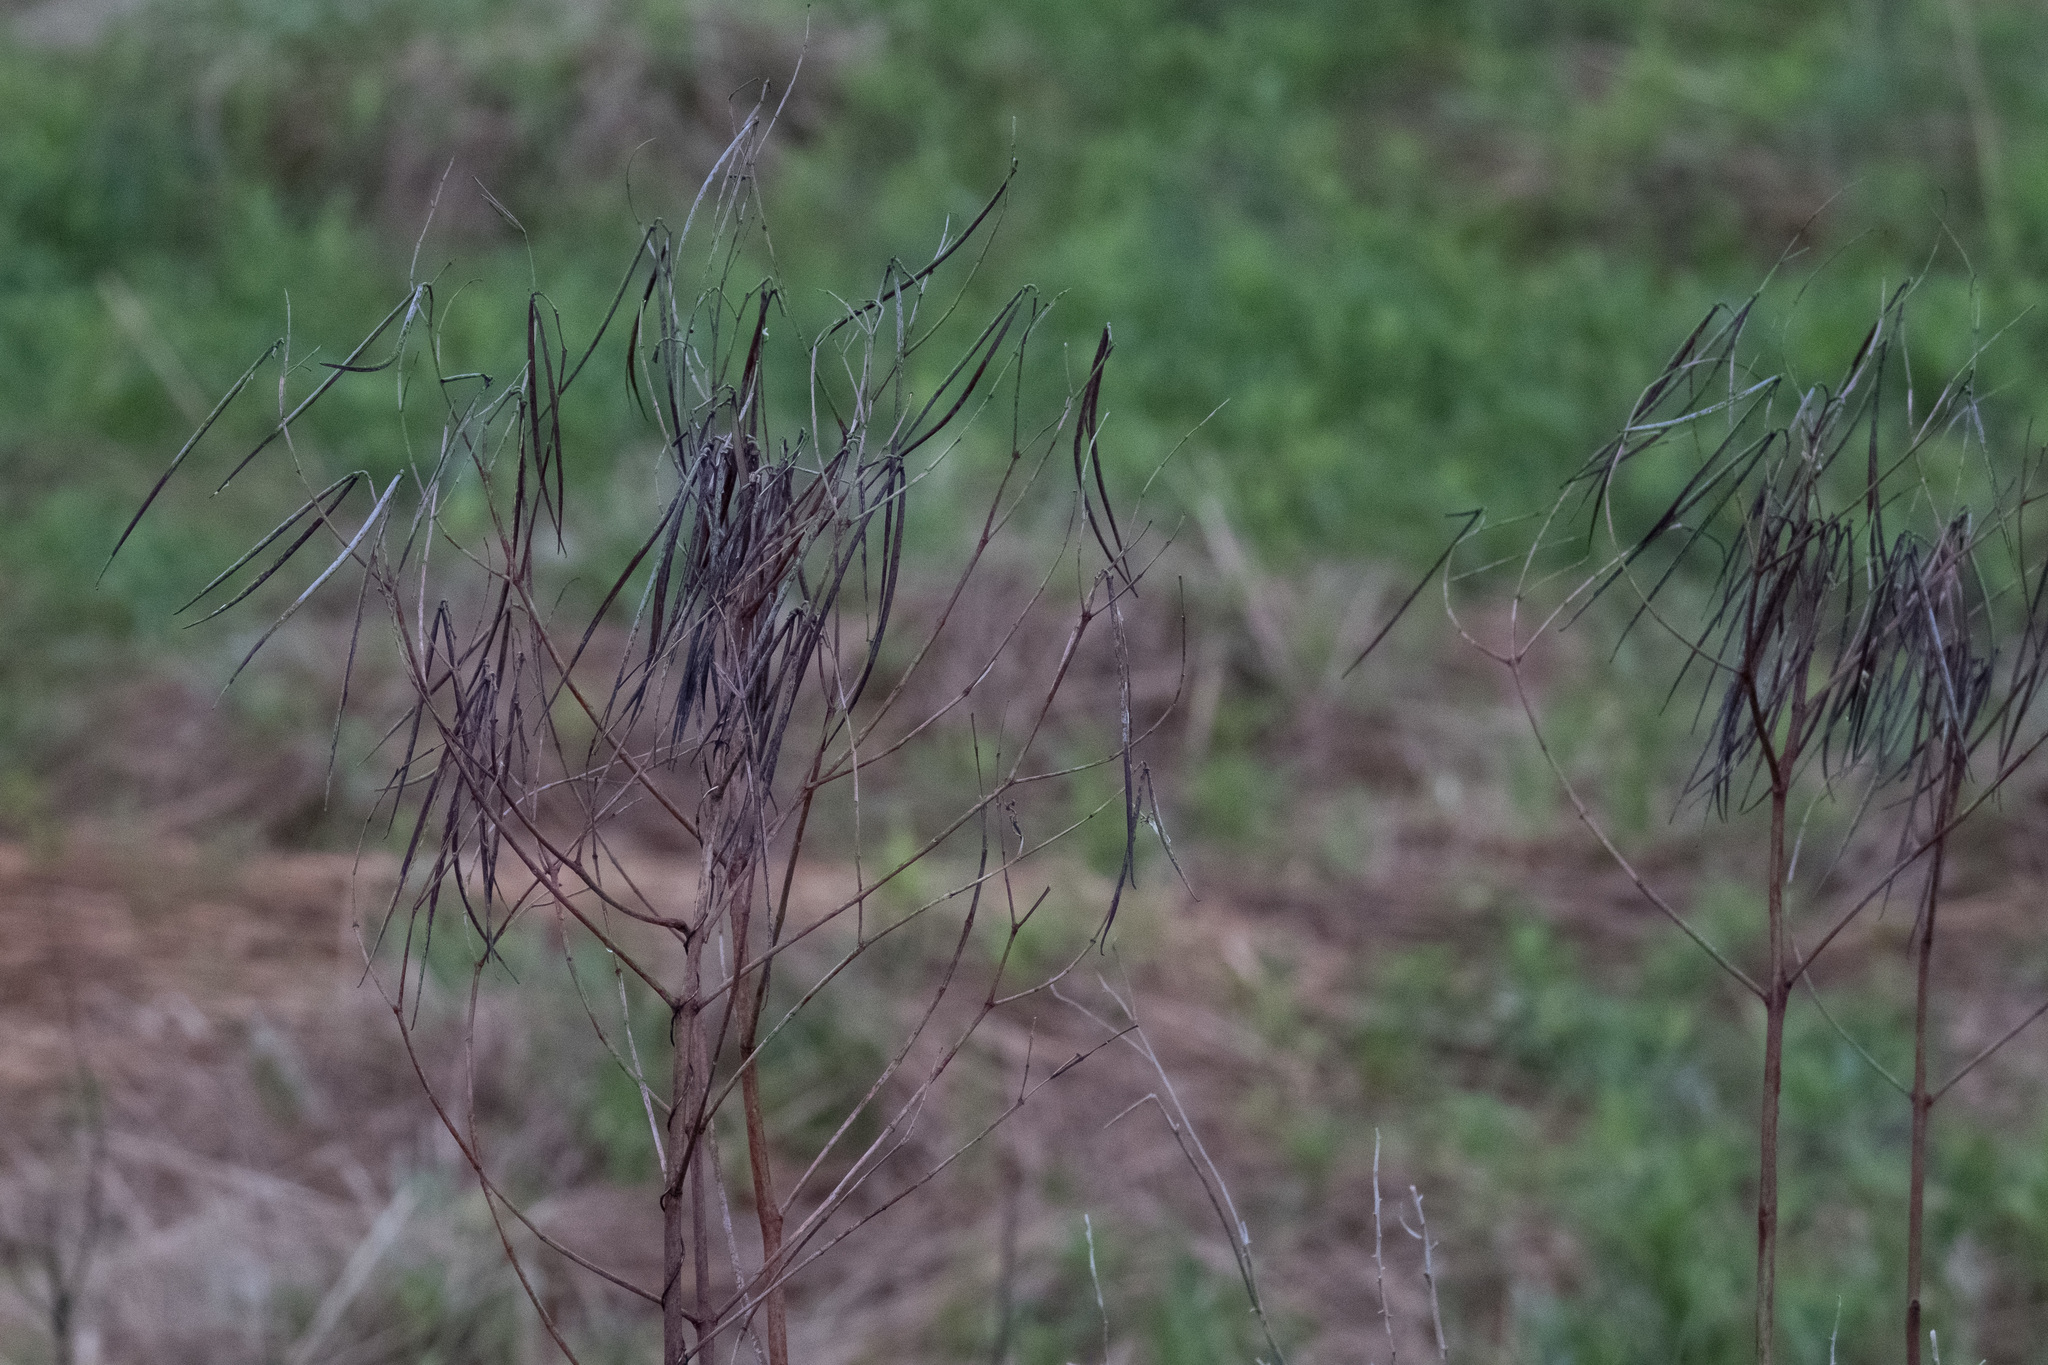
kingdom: Plantae
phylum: Tracheophyta
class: Magnoliopsida
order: Gentianales
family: Apocynaceae
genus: Apocynum
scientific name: Apocynum cannabinum
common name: Hemp dogbane
